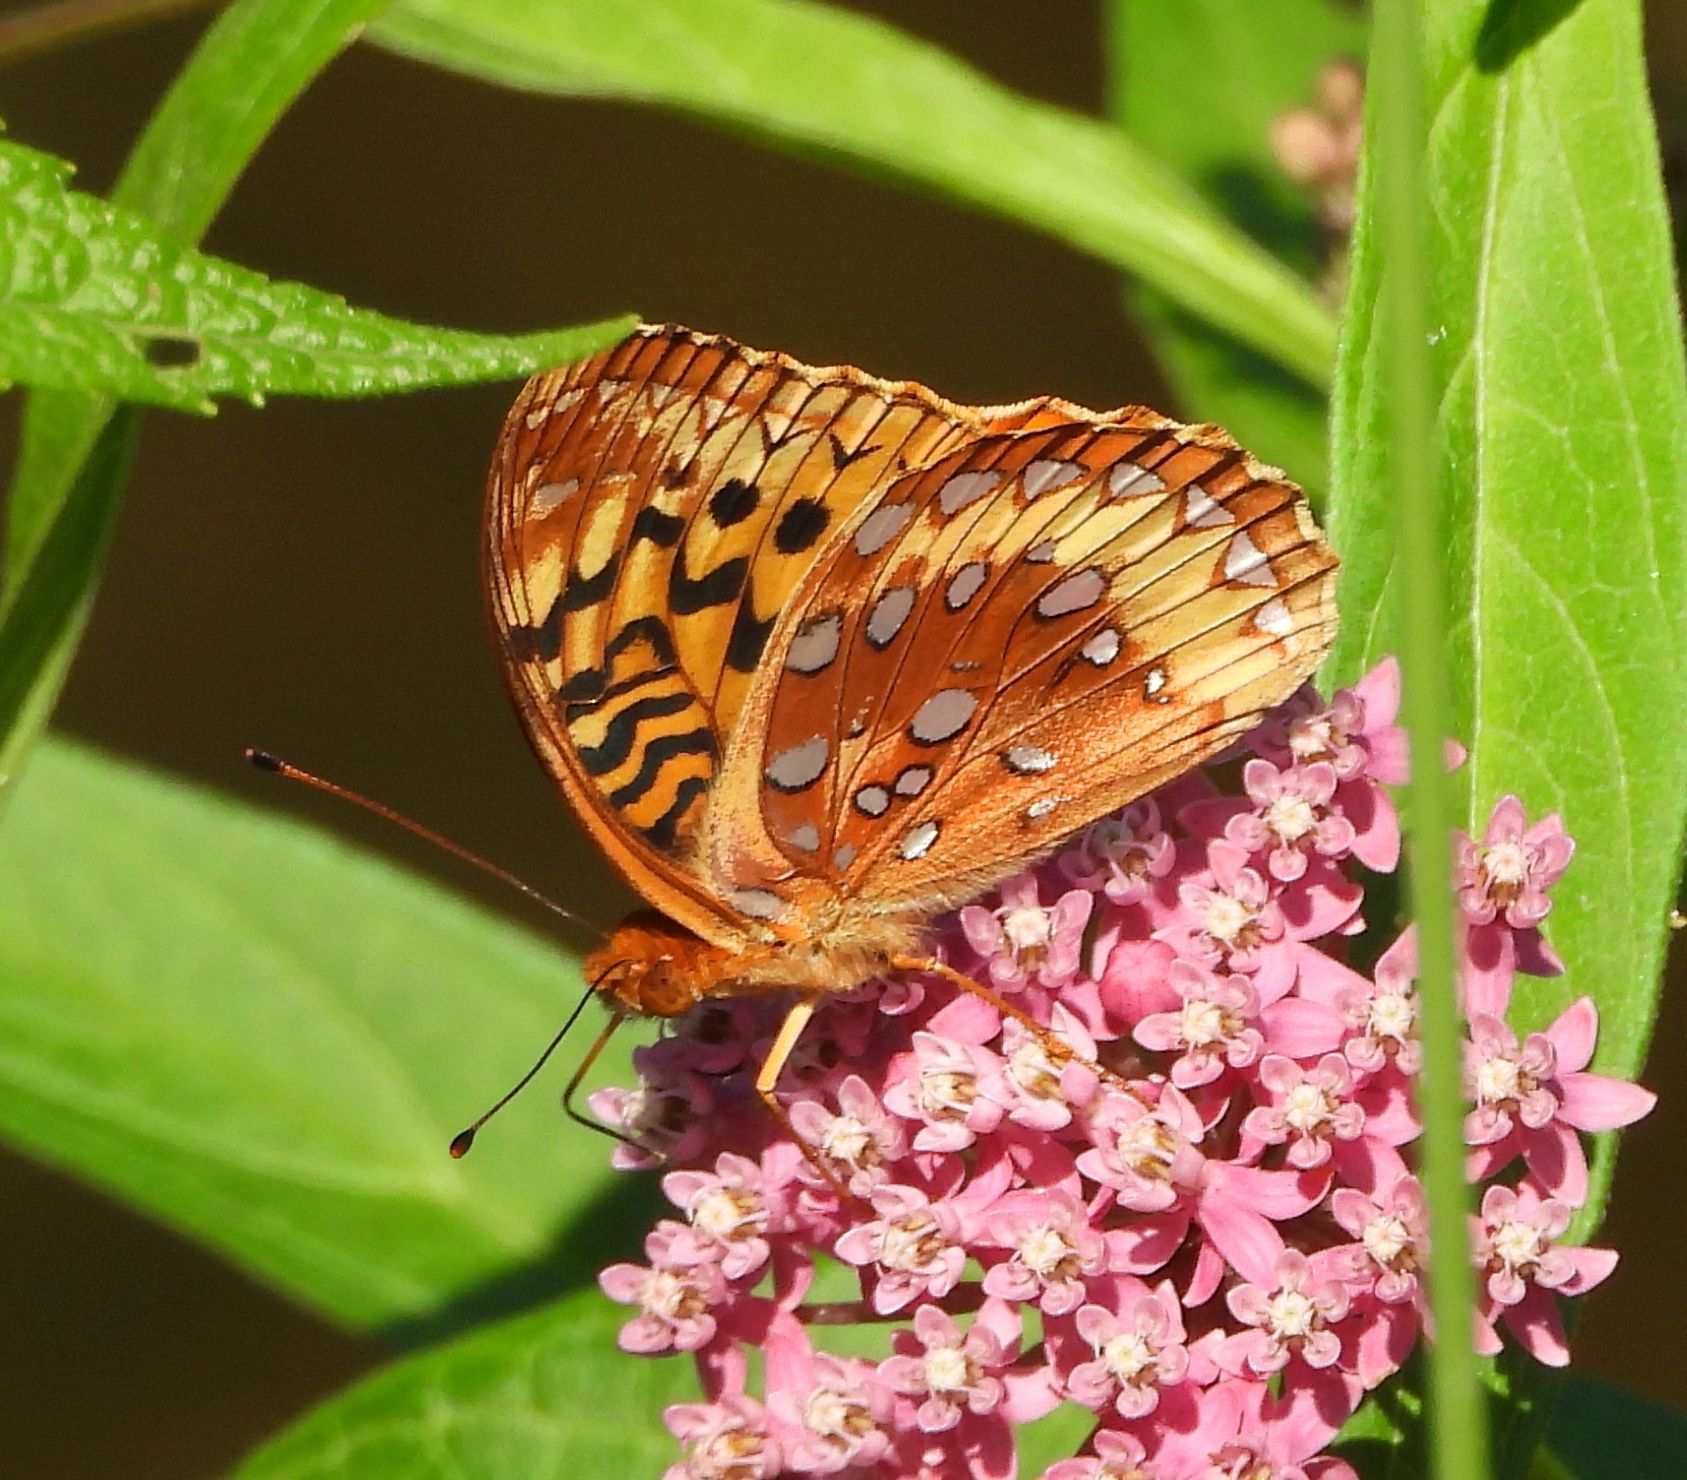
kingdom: Animalia
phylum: Arthropoda
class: Insecta
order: Lepidoptera
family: Nymphalidae
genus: Speyeria
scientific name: Speyeria cybele
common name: Great spangled fritillary
